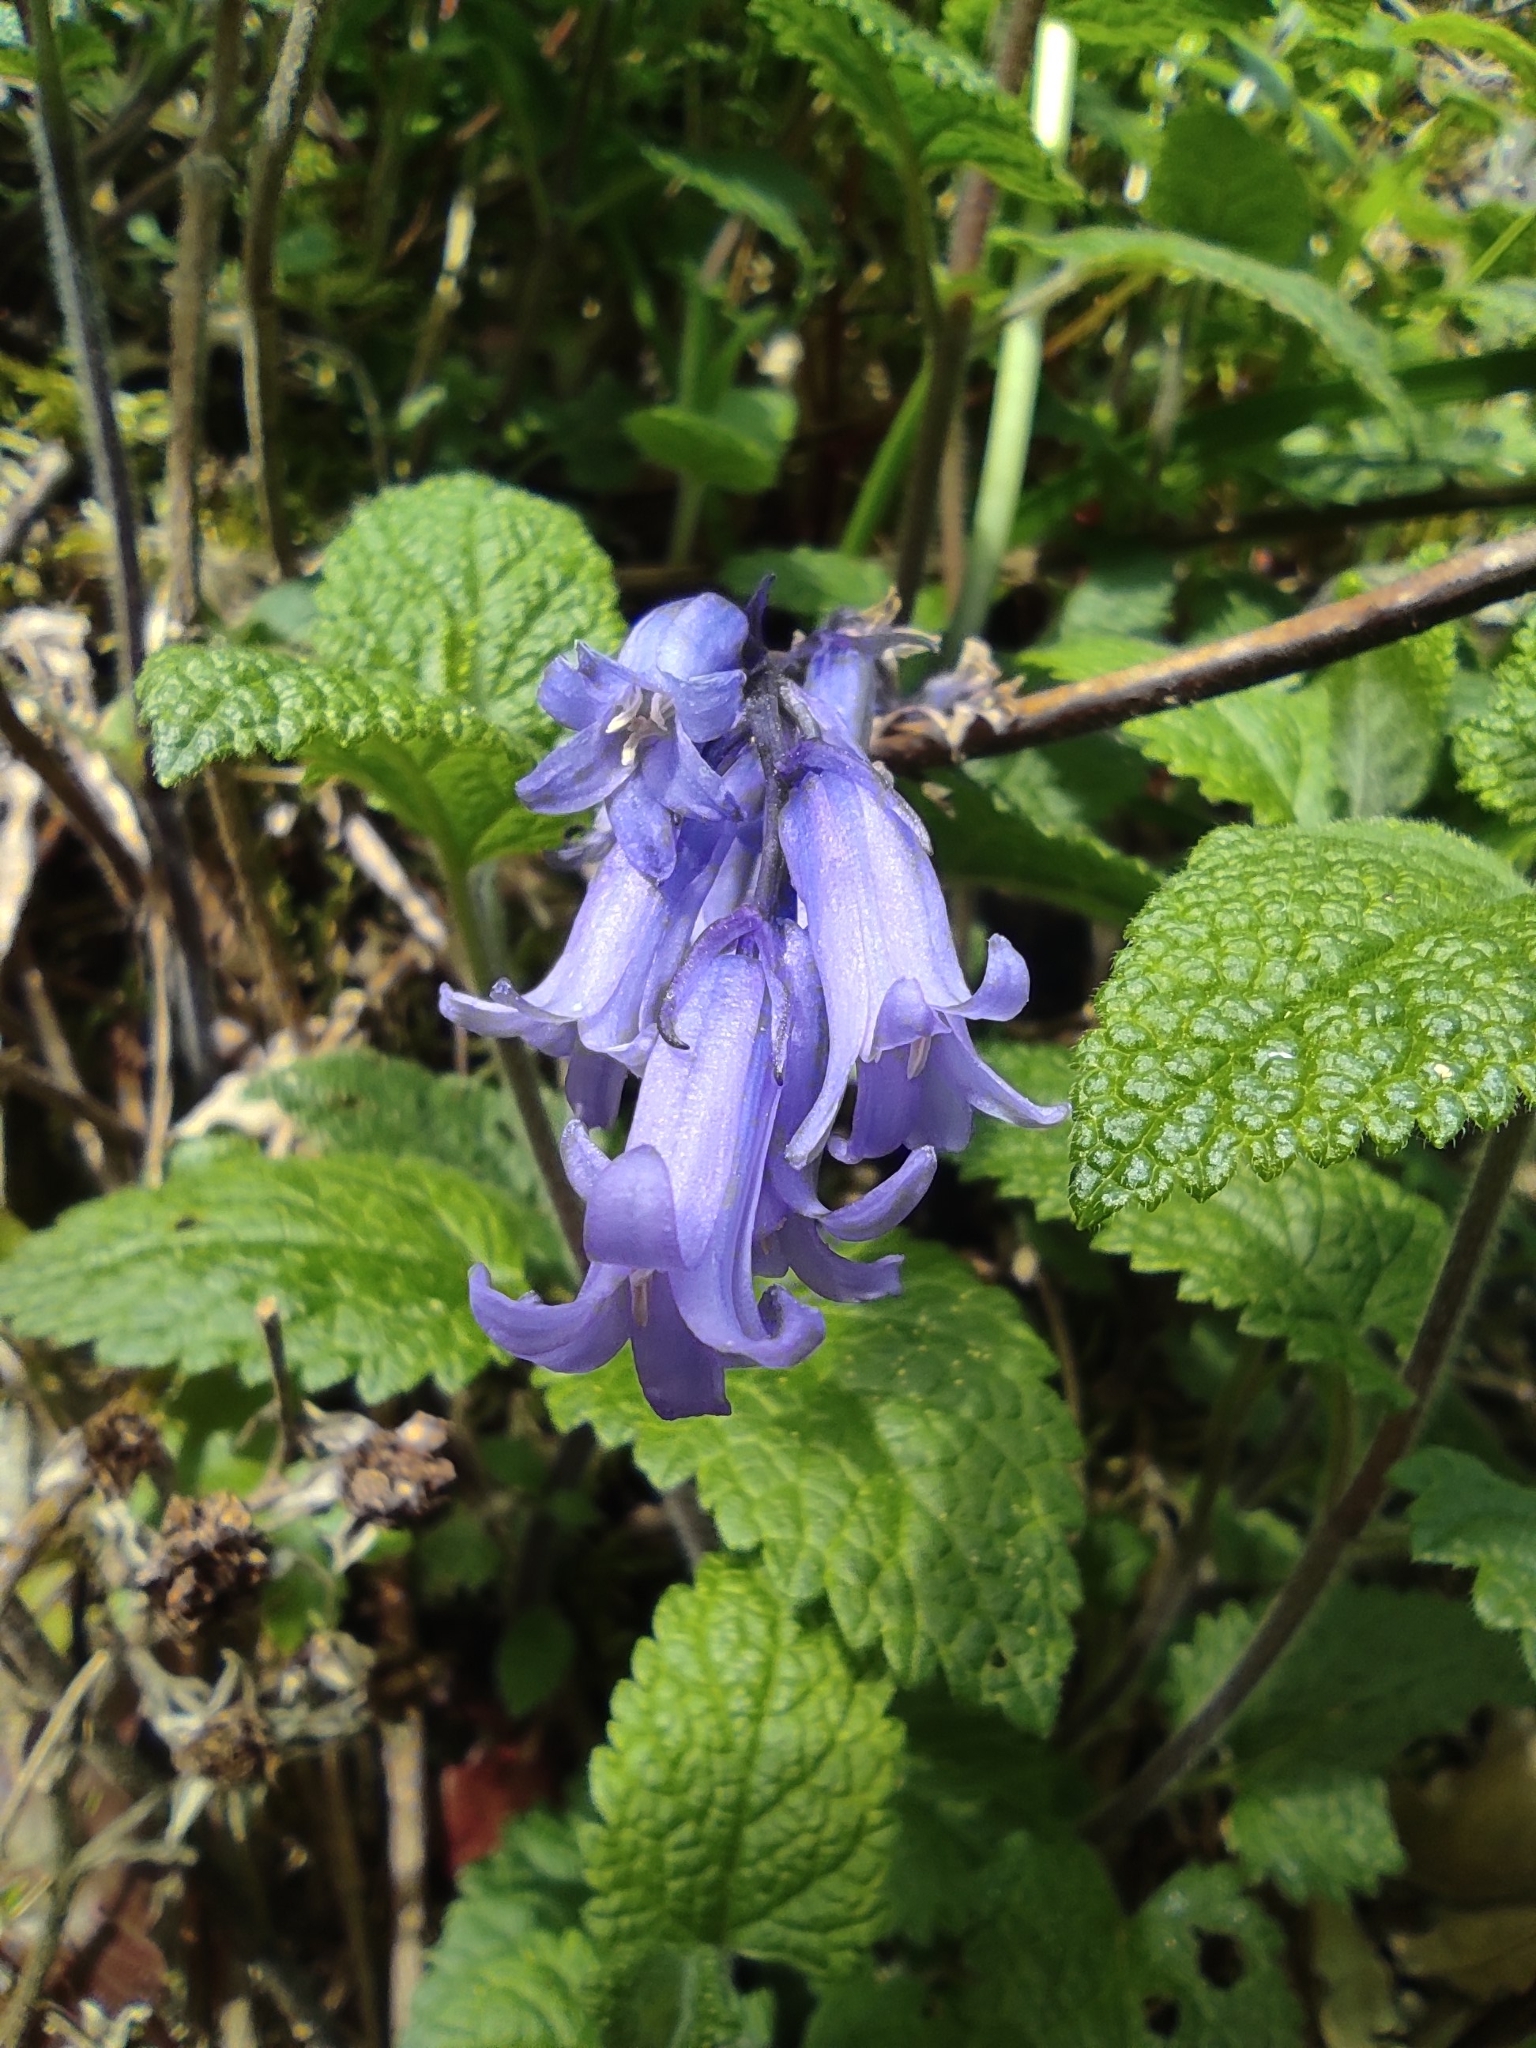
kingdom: Plantae
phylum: Tracheophyta
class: Liliopsida
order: Asparagales
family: Asparagaceae
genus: Hyacinthoides
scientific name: Hyacinthoides non-scripta
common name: Bluebell
